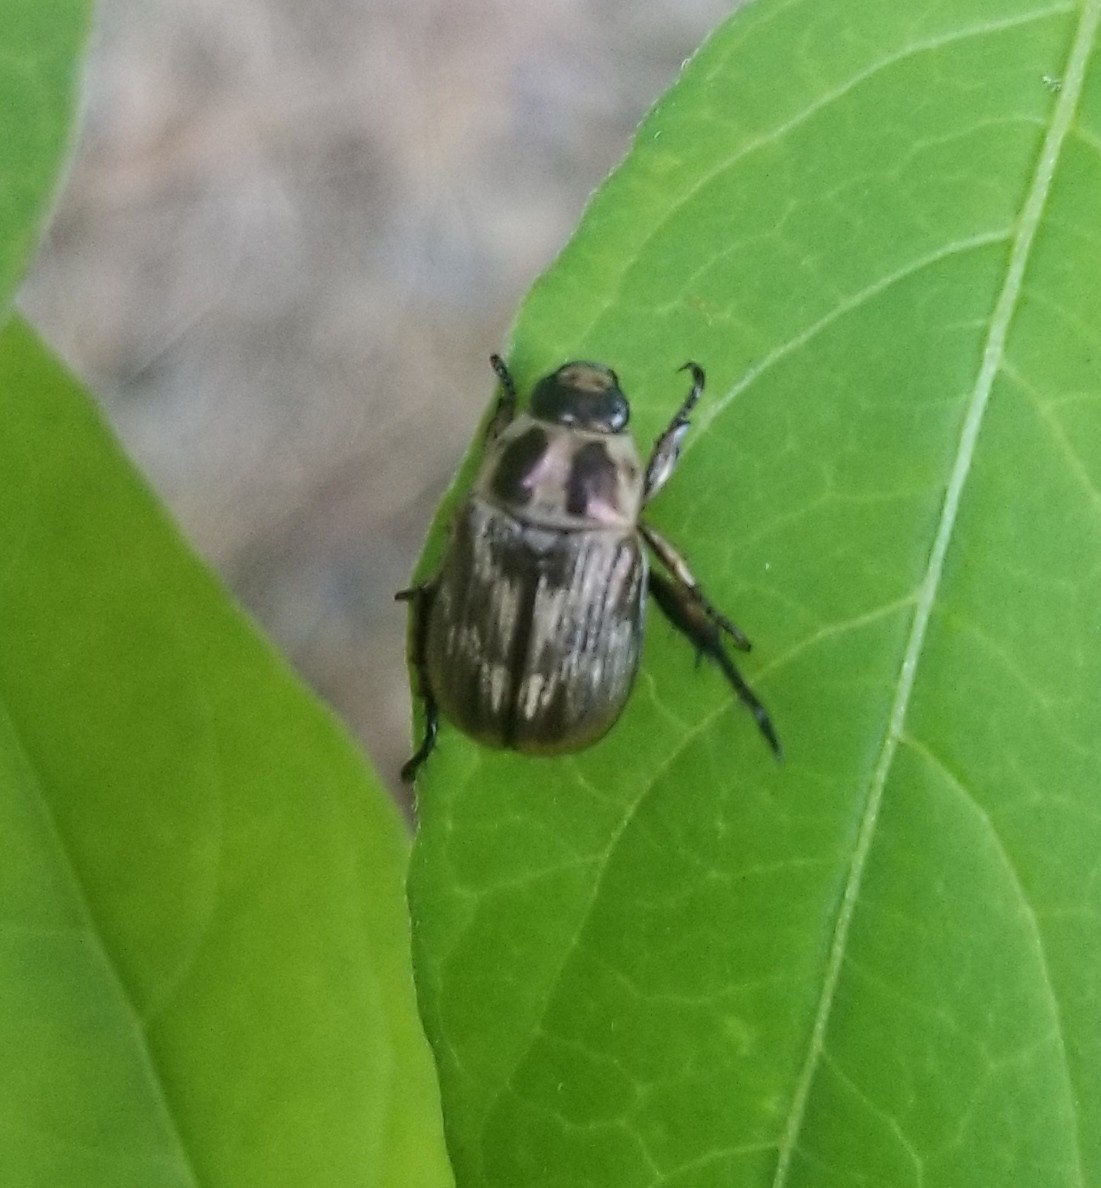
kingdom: Animalia
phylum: Arthropoda
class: Insecta
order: Coleoptera
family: Scarabaeidae
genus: Exomala
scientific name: Exomala orientalis
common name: Oriental beetle
